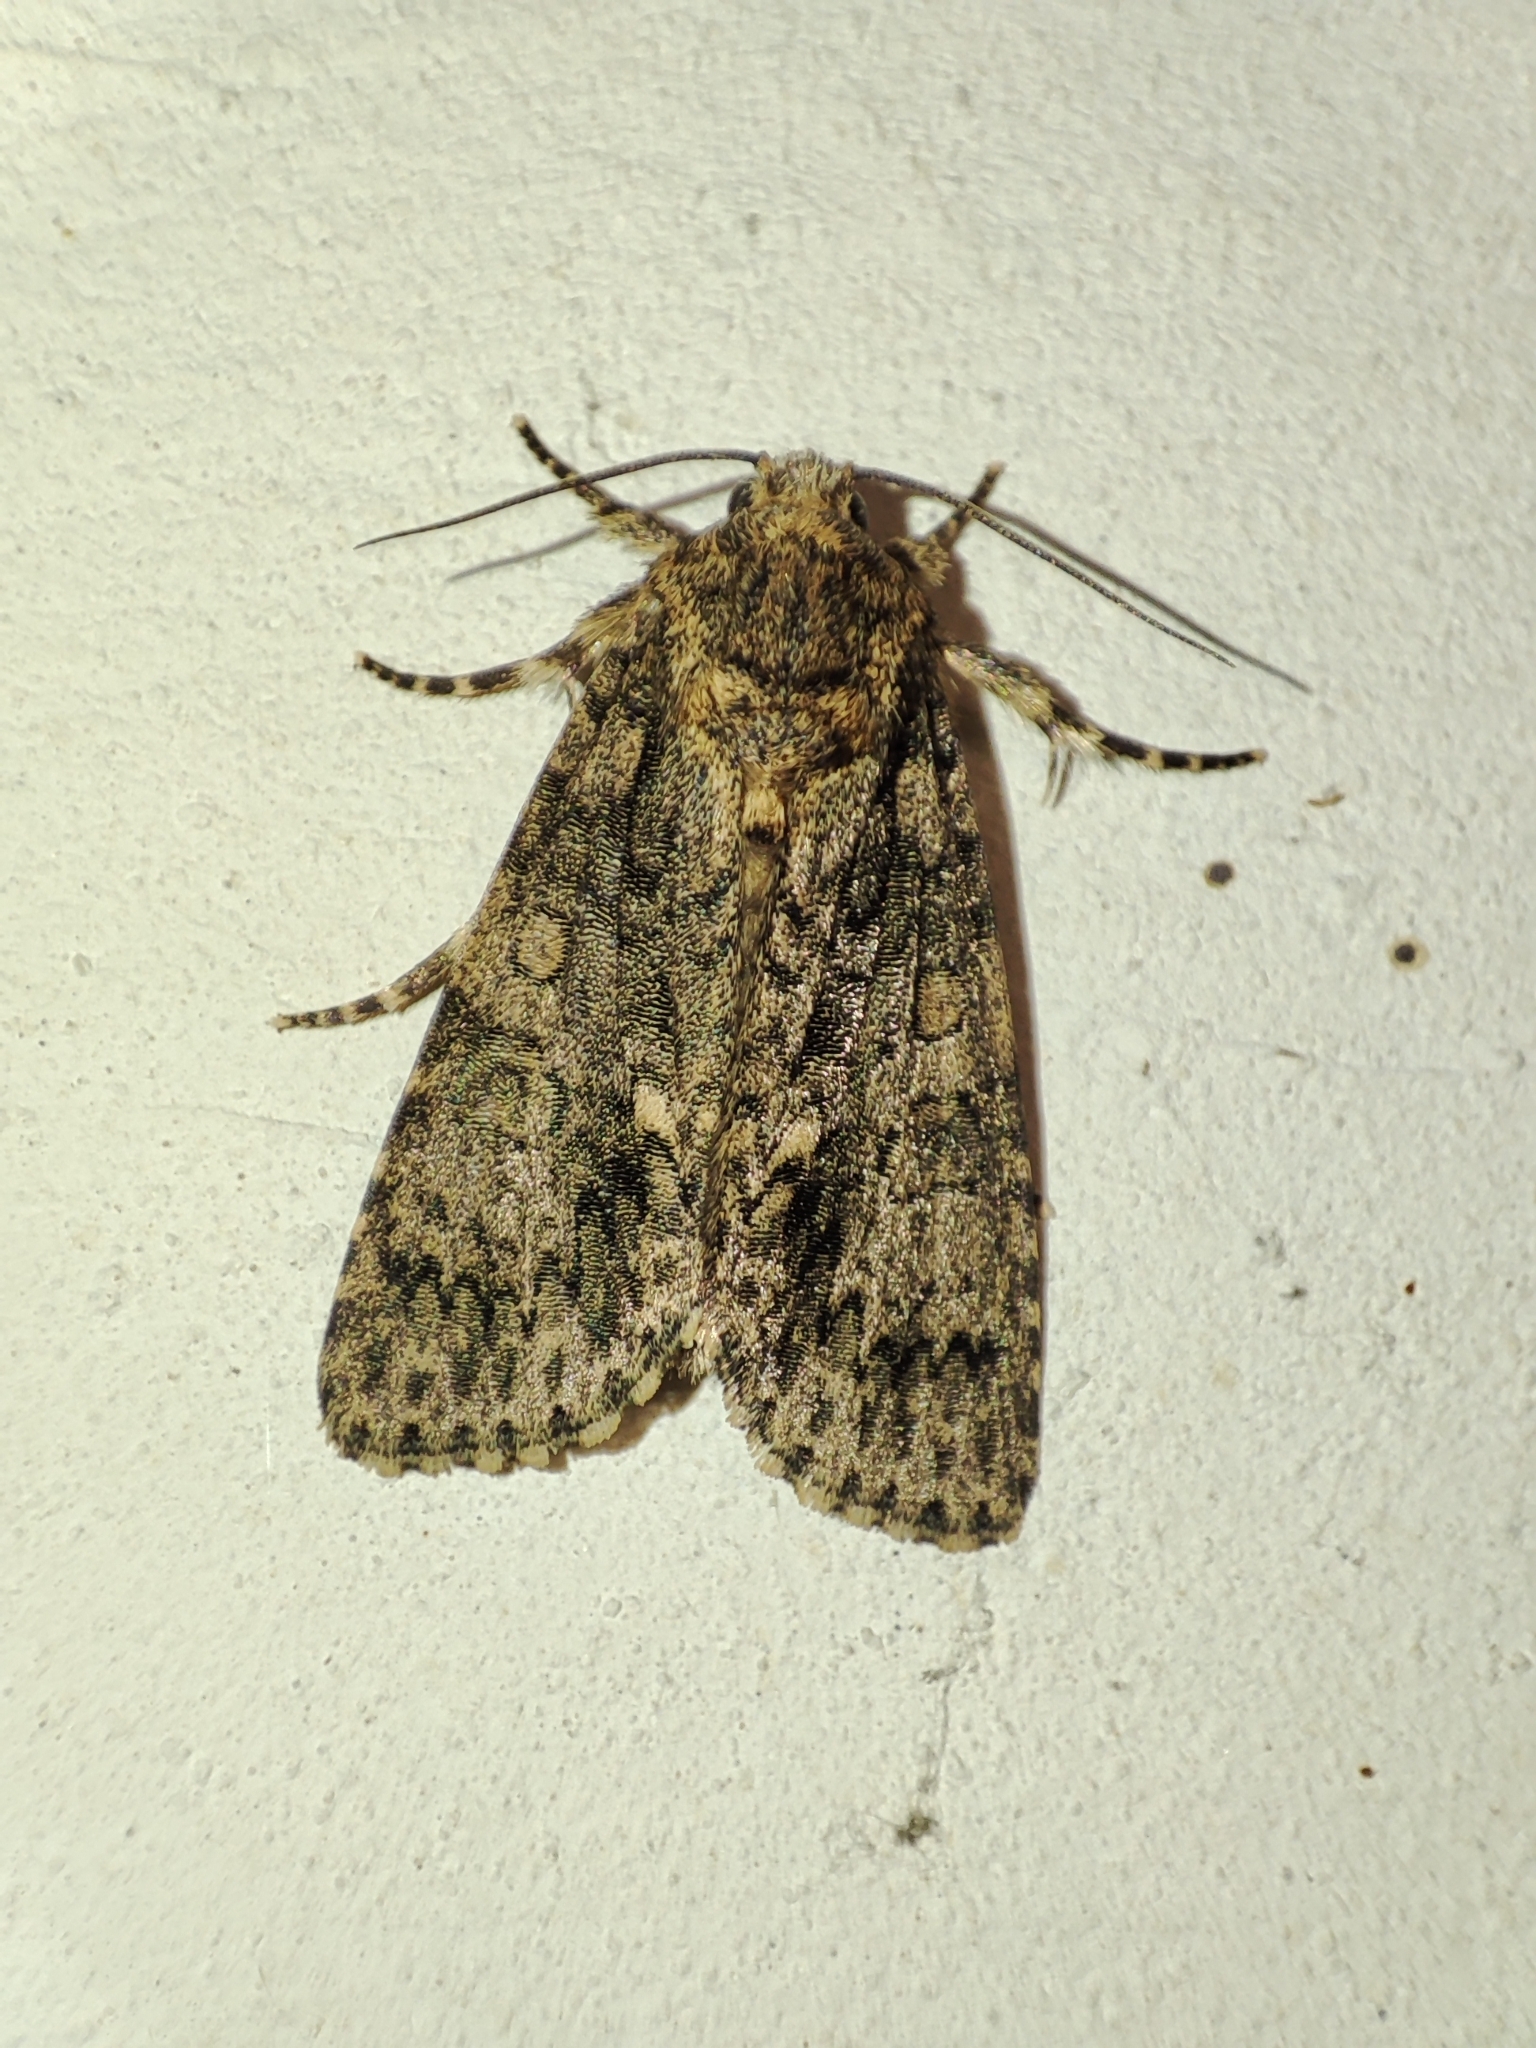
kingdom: Animalia
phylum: Arthropoda
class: Insecta
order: Lepidoptera
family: Noctuidae
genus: Acronicta
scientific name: Acronicta rumicis
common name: Knot grass
